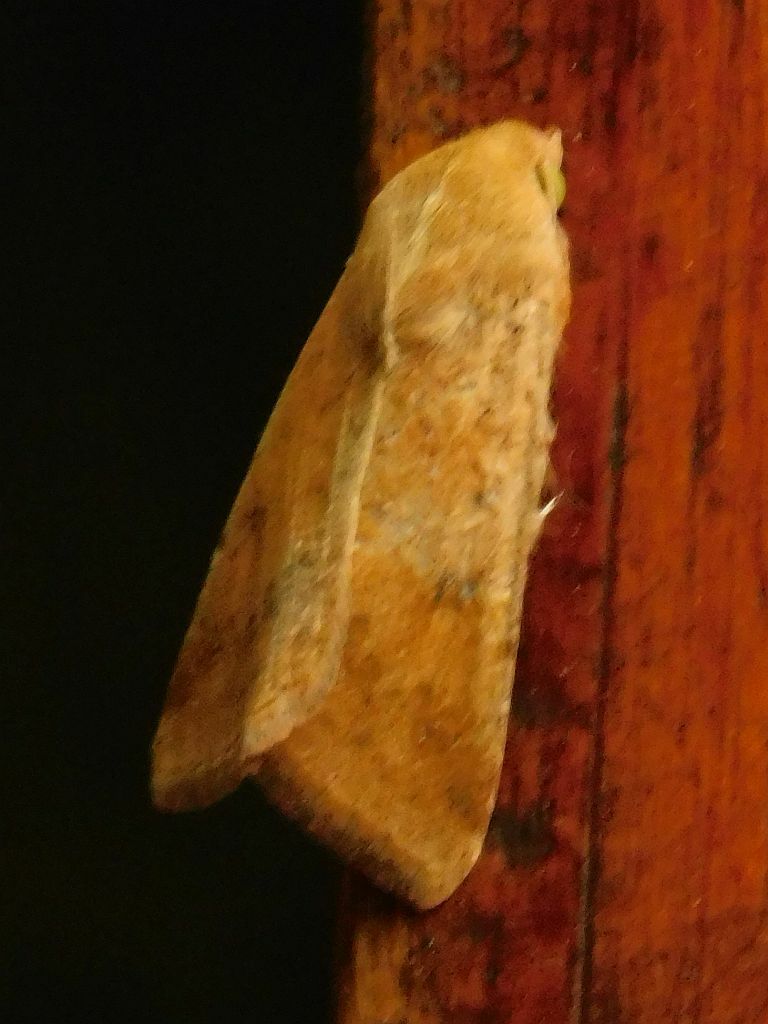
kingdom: Animalia
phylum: Arthropoda
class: Insecta
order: Lepidoptera
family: Noctuidae
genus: Helicoverpa
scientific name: Helicoverpa armigera
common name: Cotton bollworm
